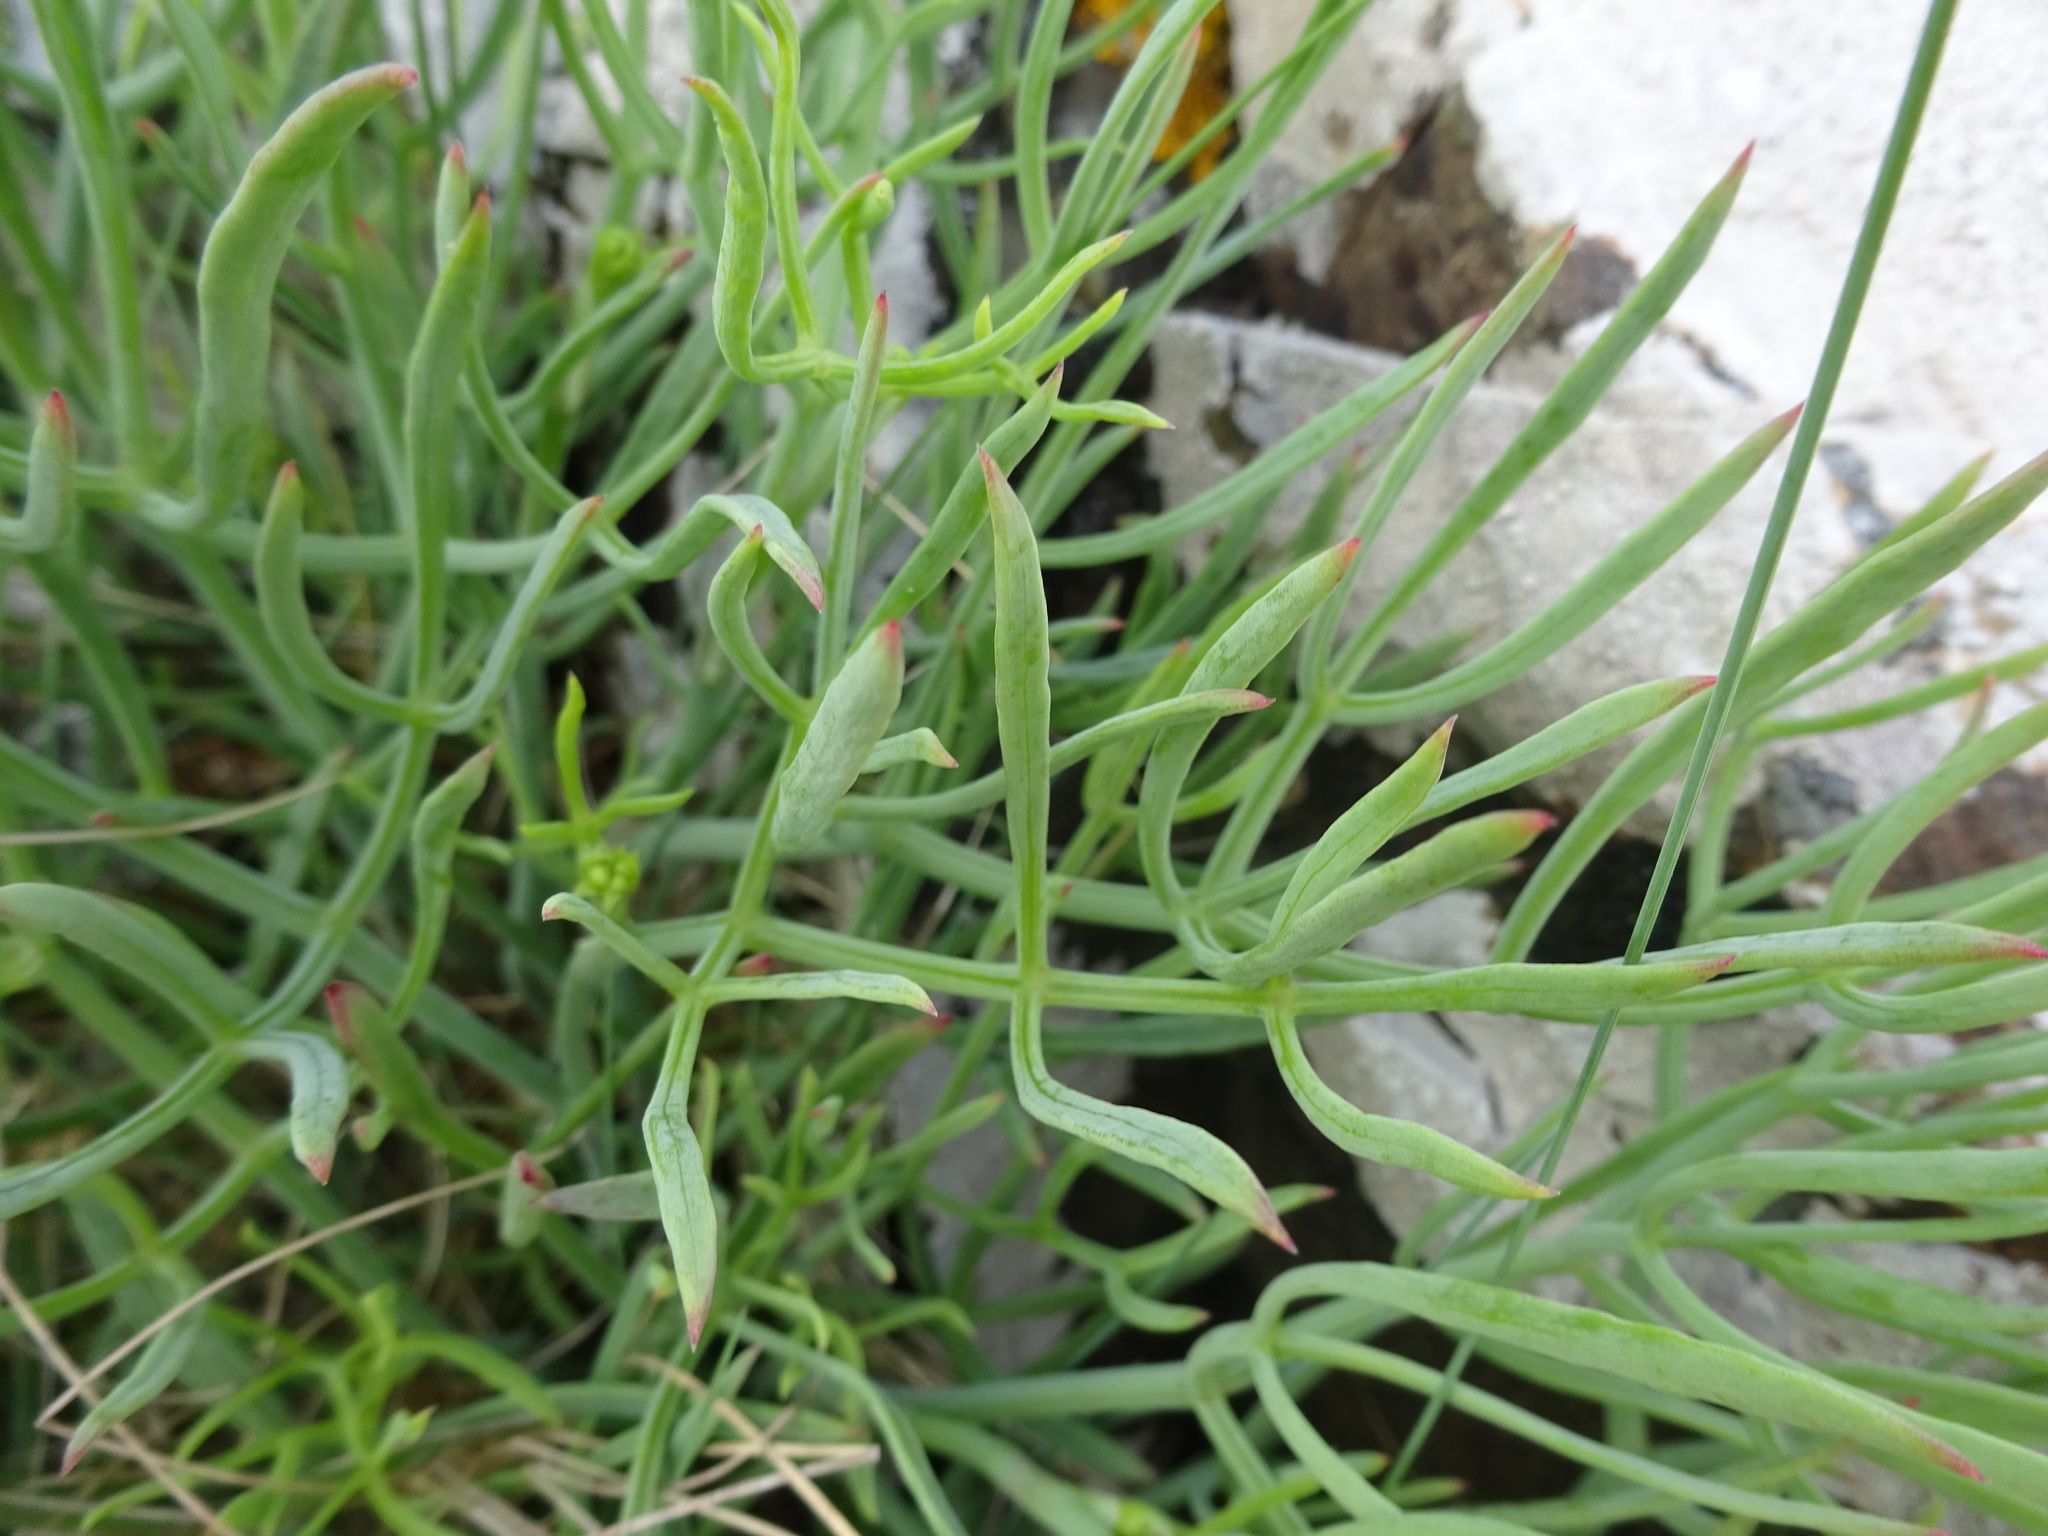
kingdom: Plantae
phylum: Tracheophyta
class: Magnoliopsida
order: Apiales
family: Apiaceae
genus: Crithmum
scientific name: Crithmum maritimum
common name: Rock samphire
